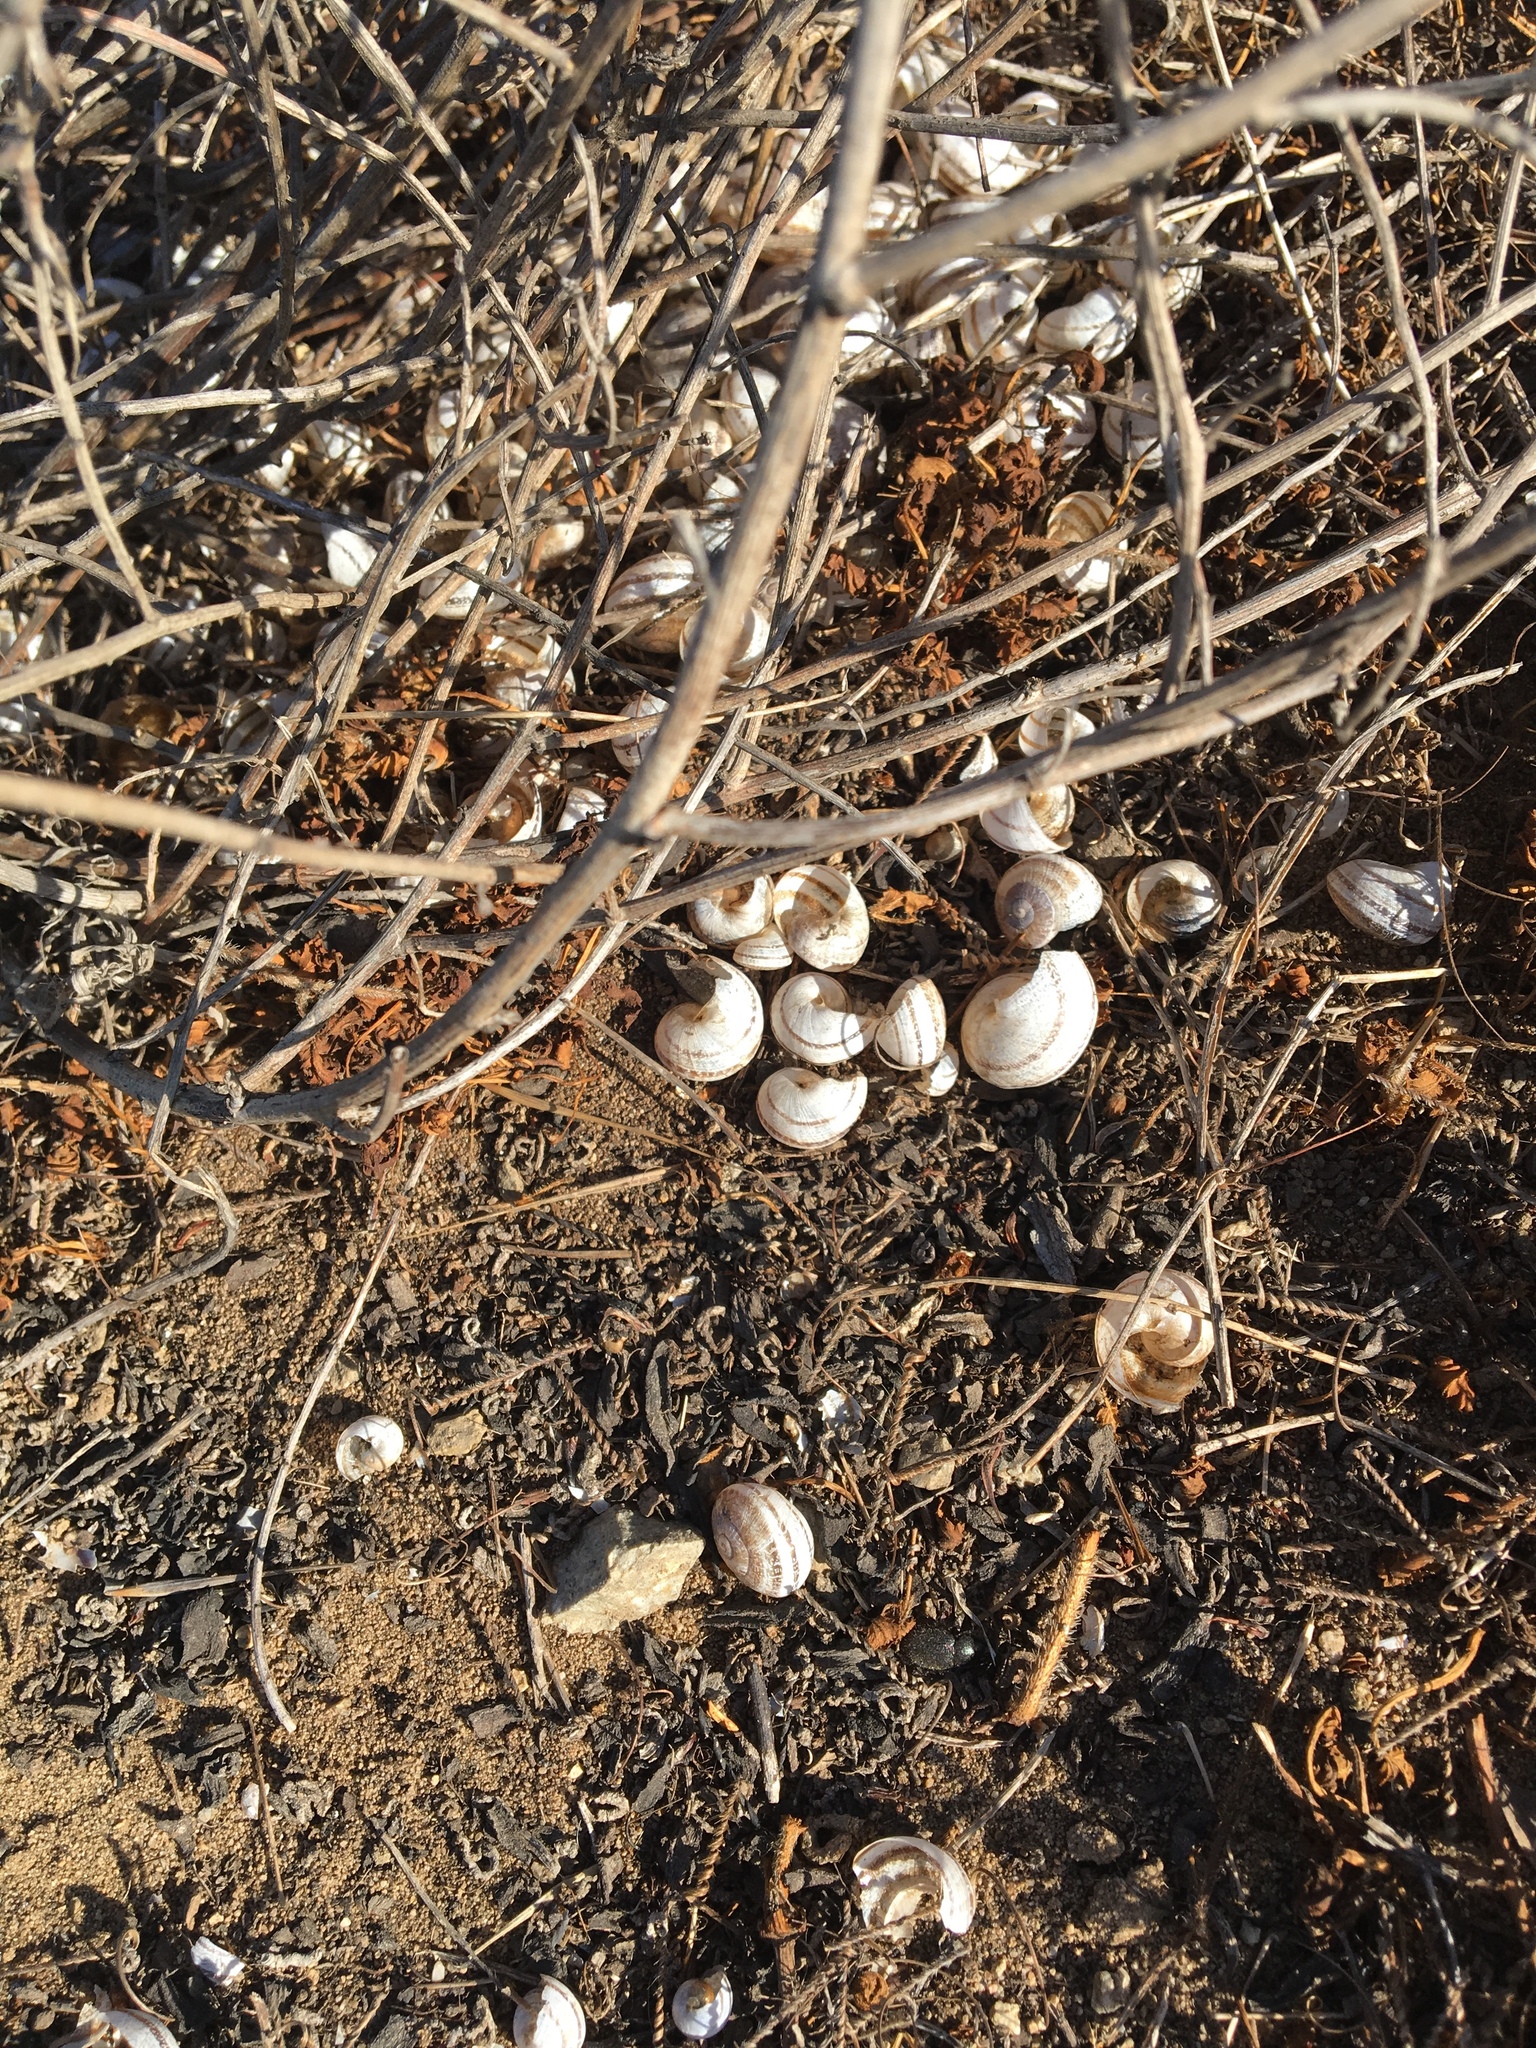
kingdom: Animalia
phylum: Mollusca
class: Gastropoda
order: Stylommatophora
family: Helicidae
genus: Otala
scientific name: Otala lactea
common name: Milk snail
